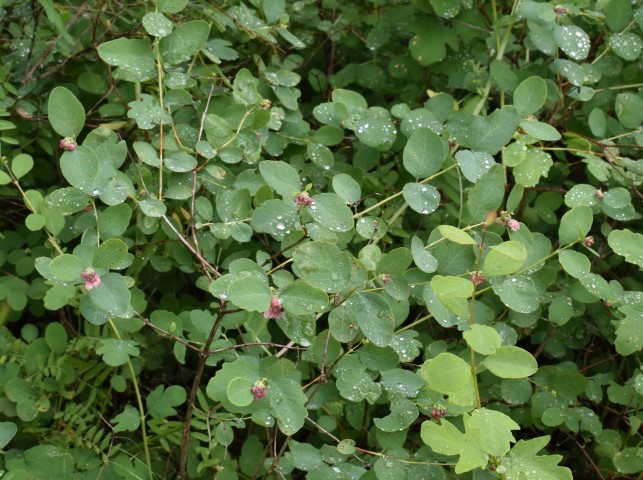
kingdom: Plantae
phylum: Tracheophyta
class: Magnoliopsida
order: Dipsacales
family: Caprifoliaceae
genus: Symphoricarpos
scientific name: Symphoricarpos albus
